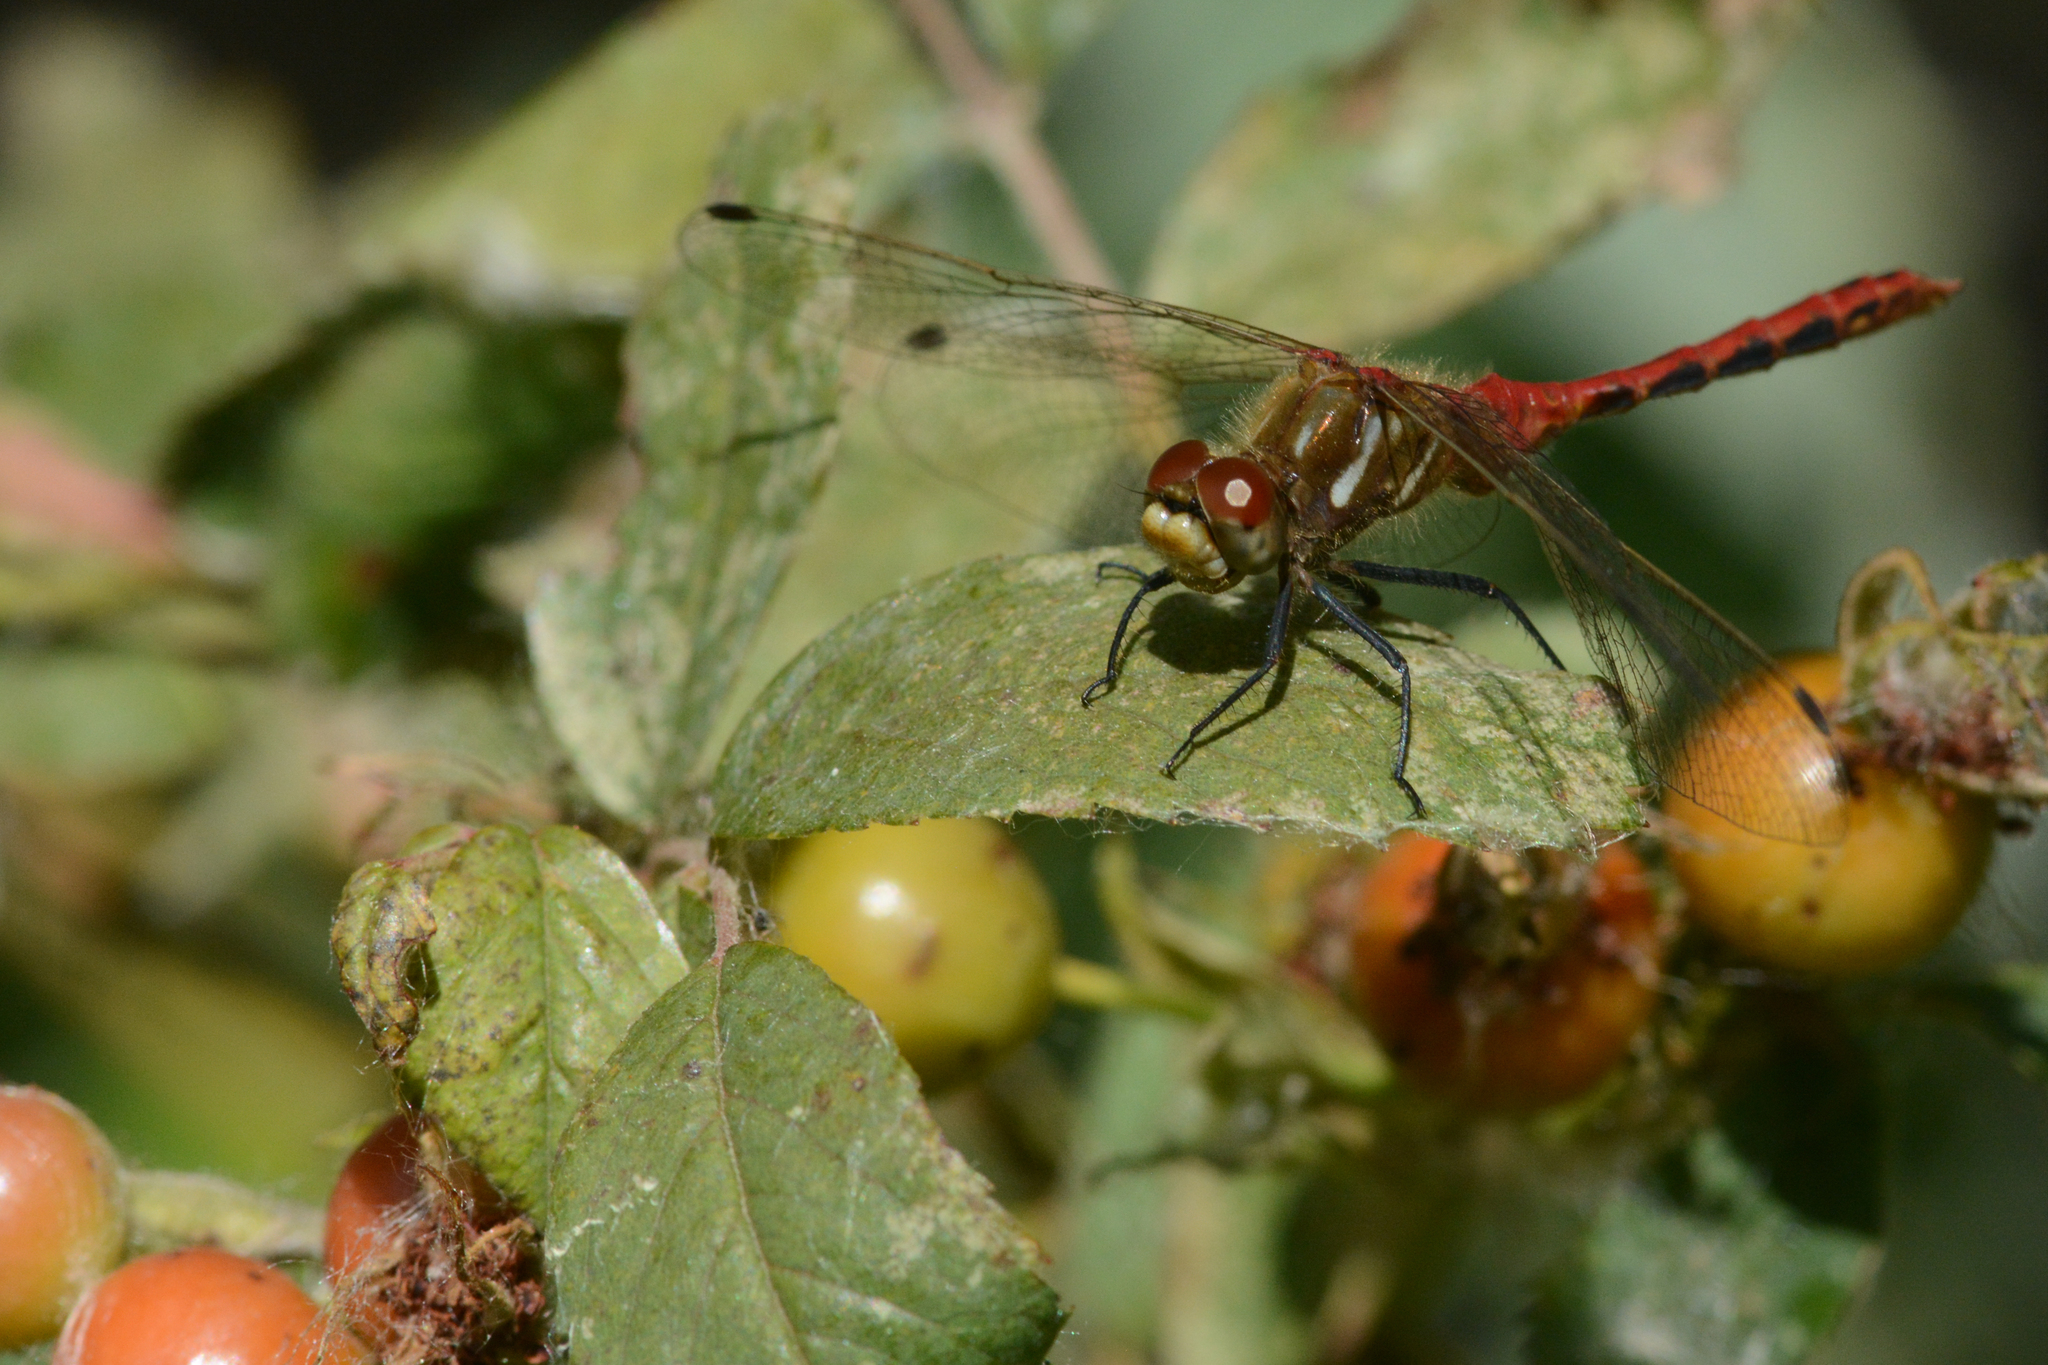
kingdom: Animalia
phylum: Arthropoda
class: Insecta
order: Odonata
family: Libellulidae
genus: Sympetrum
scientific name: Sympetrum pallipes
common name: Striped meadowhawk
